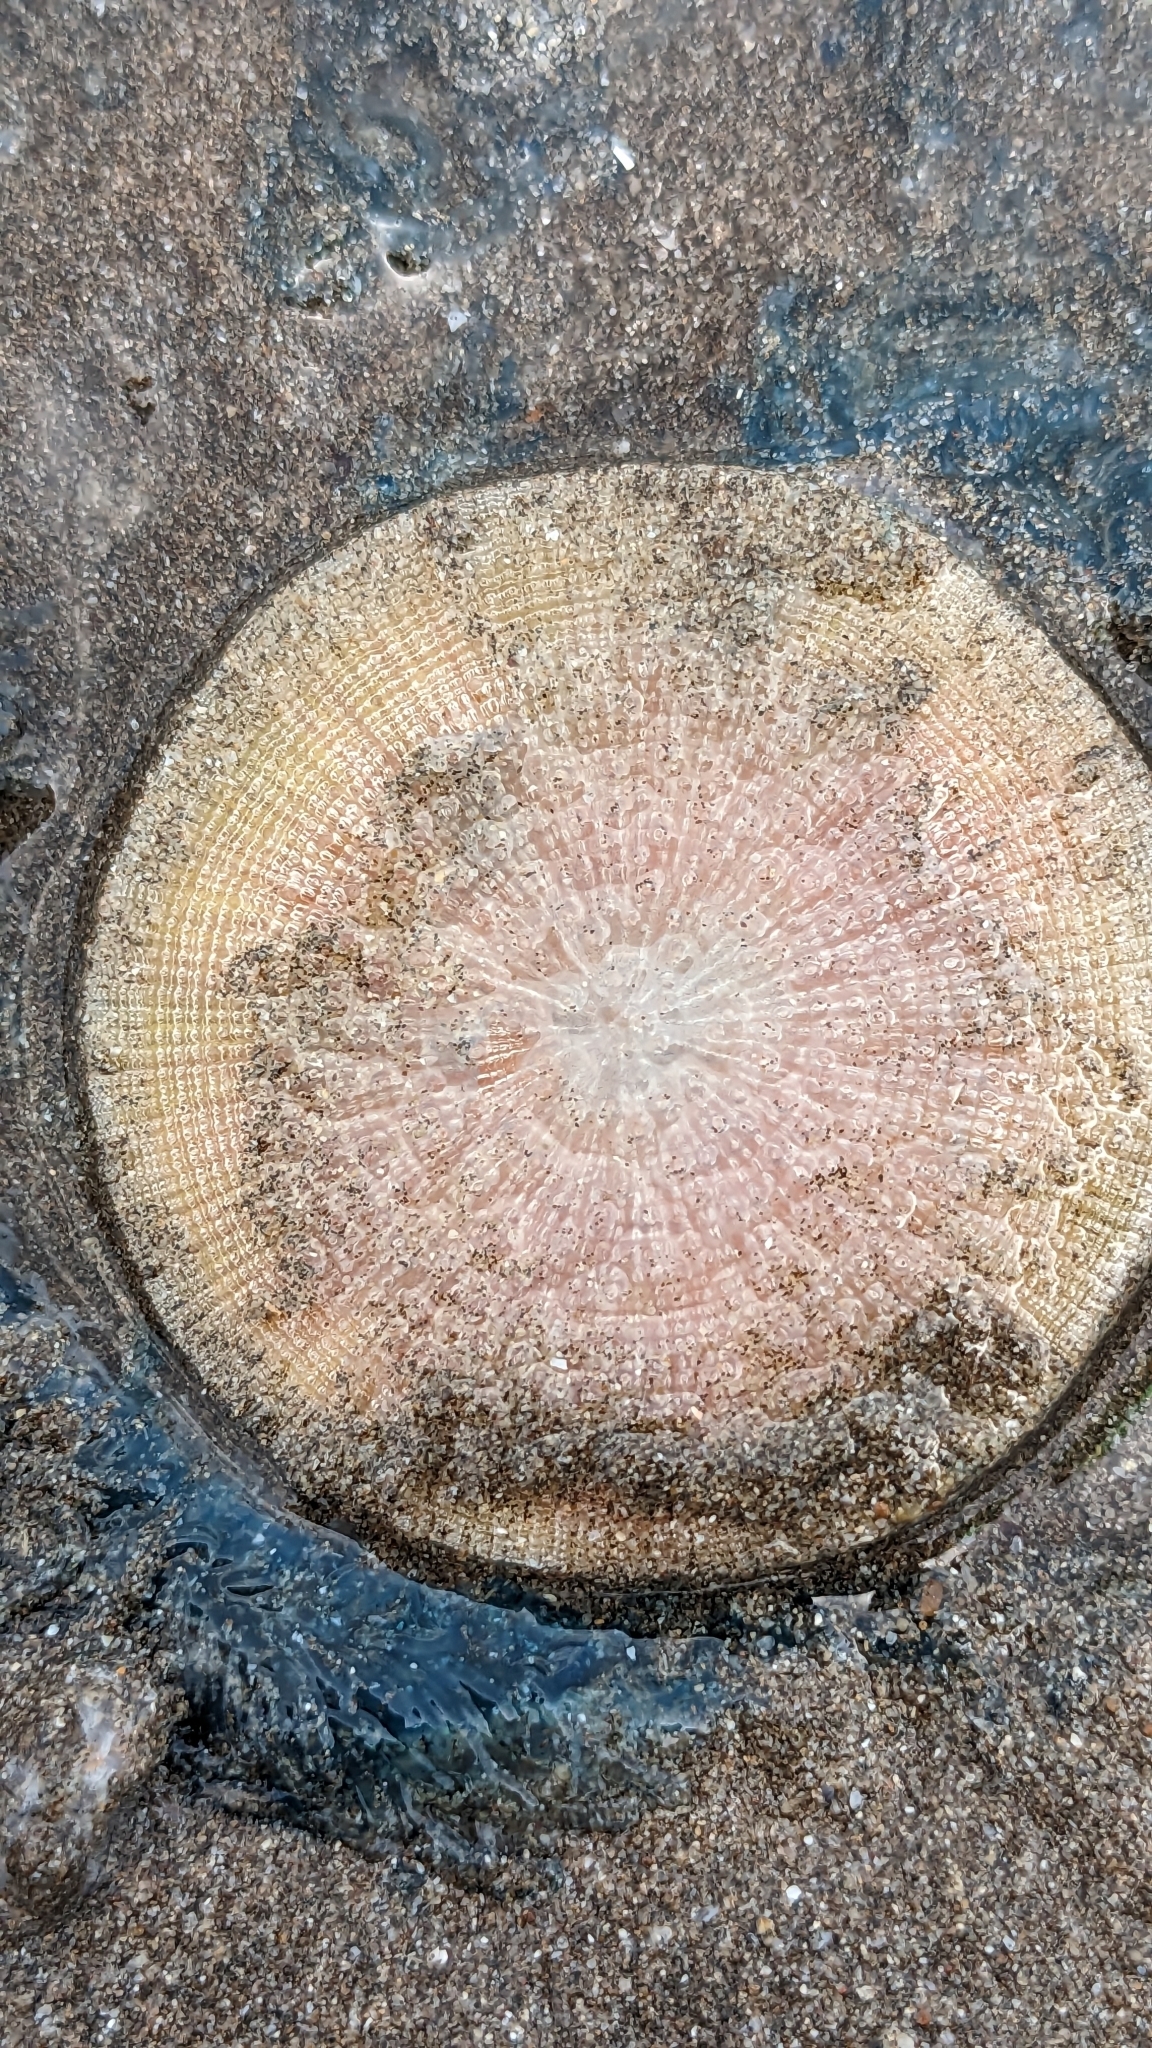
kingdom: Animalia
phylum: Cnidaria
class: Hydrozoa
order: Anthoathecata
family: Porpitidae
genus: Porpita
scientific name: Porpita porpita
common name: Blue button
